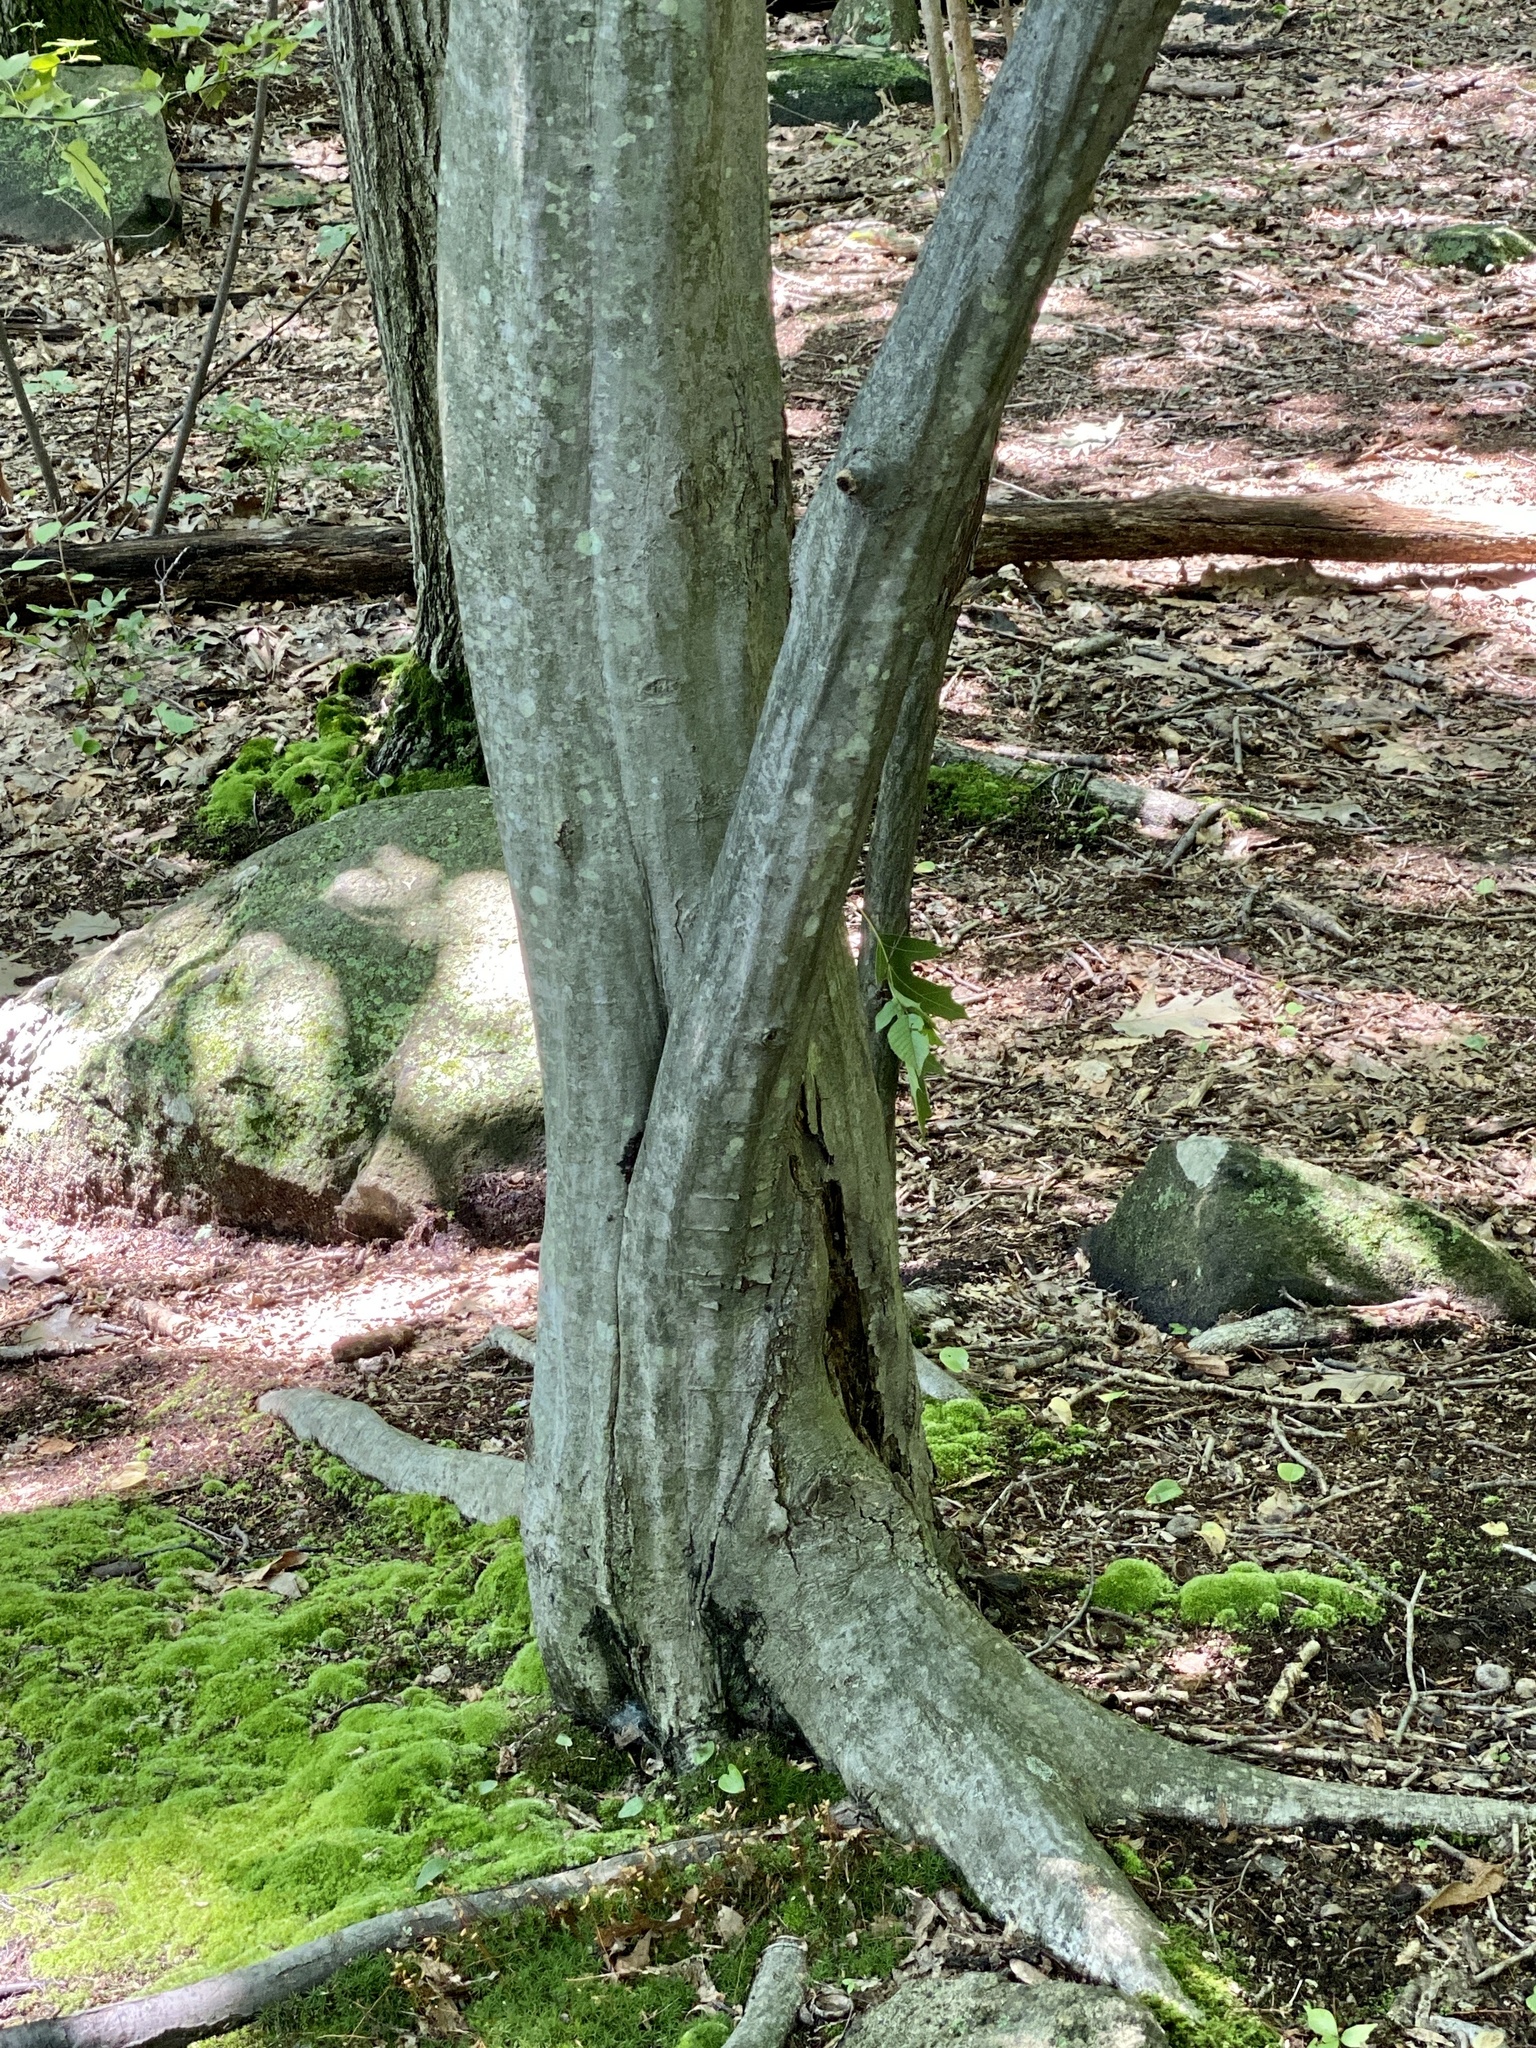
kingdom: Plantae
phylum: Tracheophyta
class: Magnoliopsida
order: Fagales
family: Betulaceae
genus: Carpinus
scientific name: Carpinus caroliniana
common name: American hornbeam
